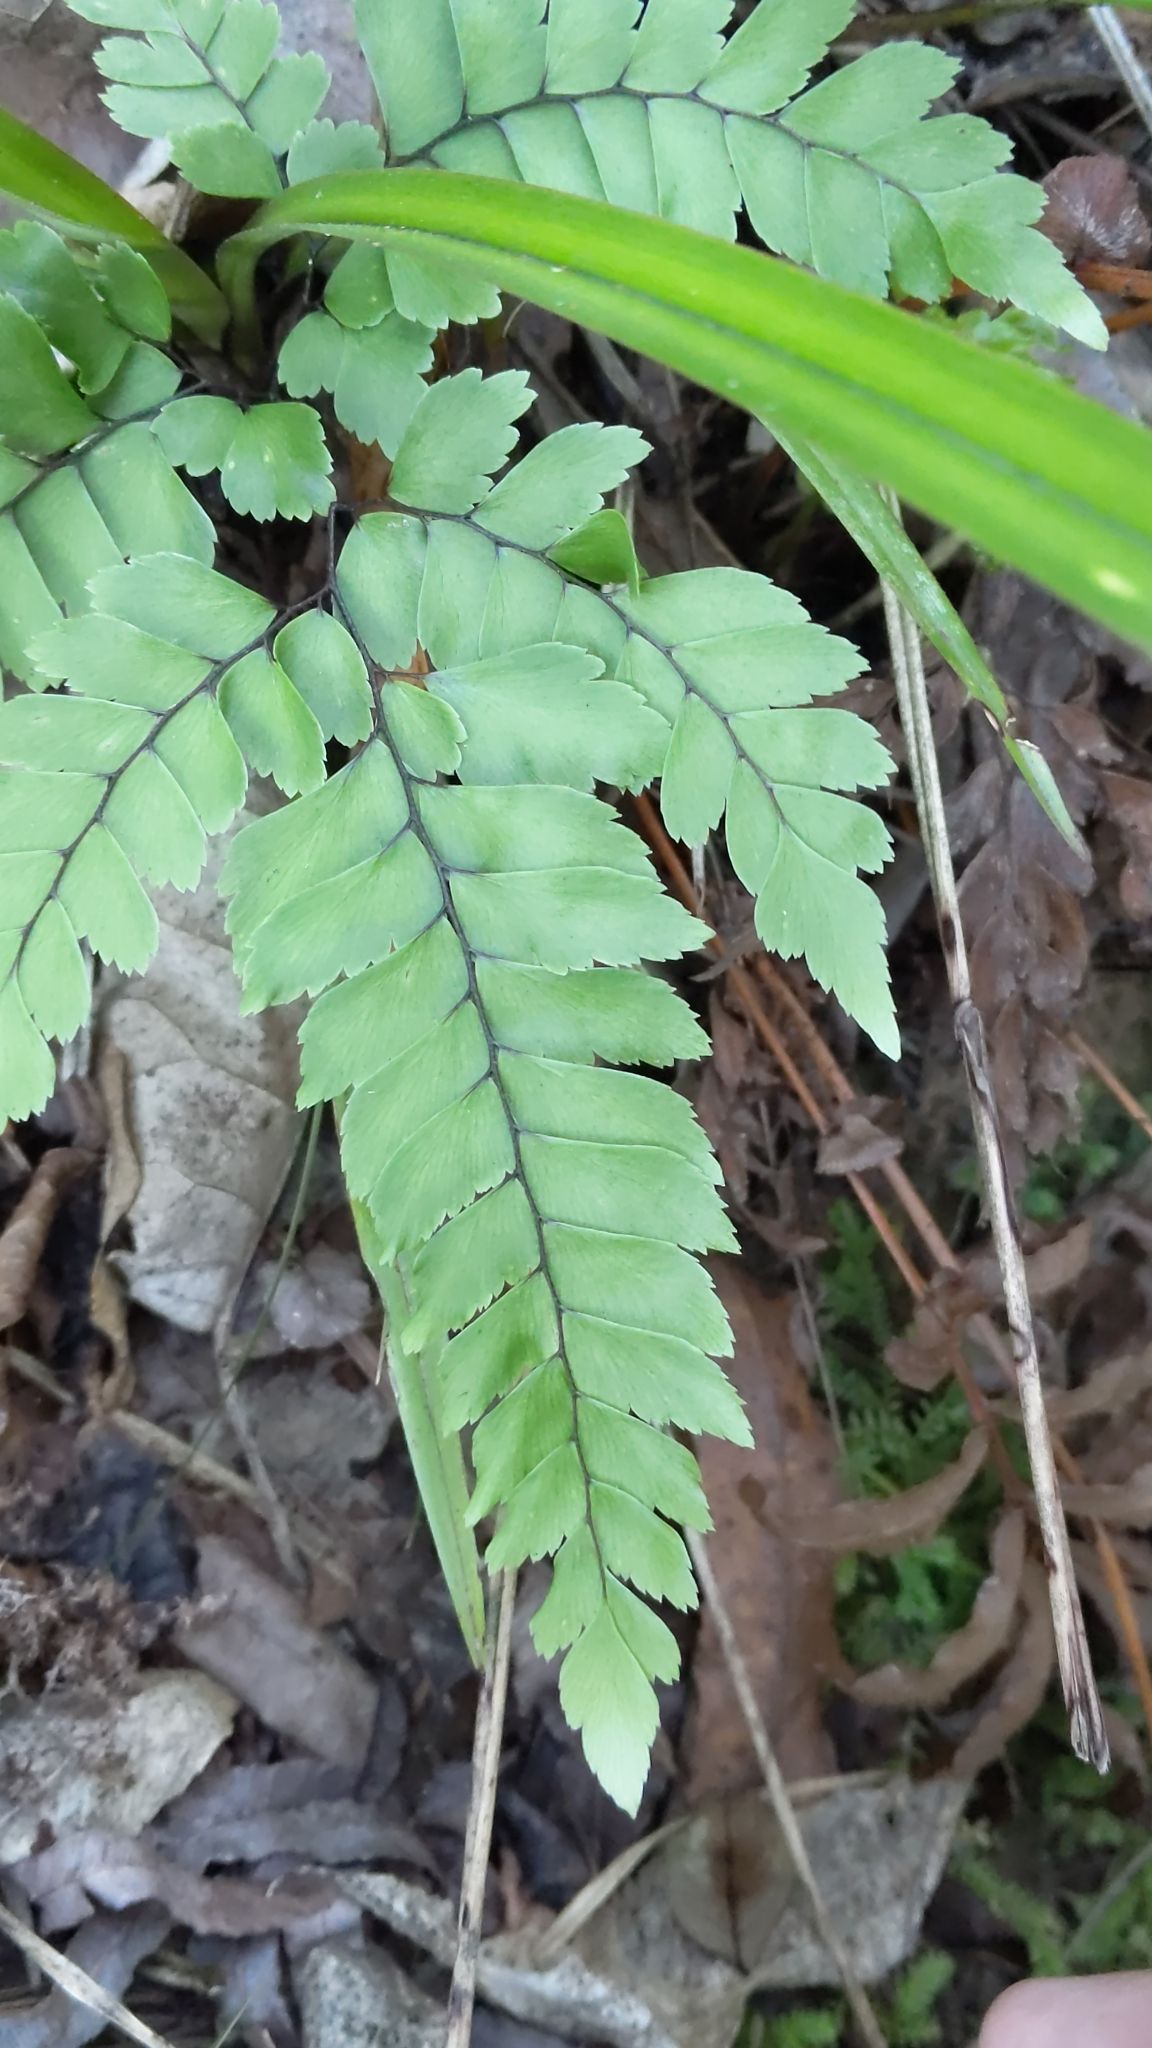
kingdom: Plantae
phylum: Tracheophyta
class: Polypodiopsida
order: Polypodiales
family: Pteridaceae
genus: Adiantum
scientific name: Adiantum cunninghamii
